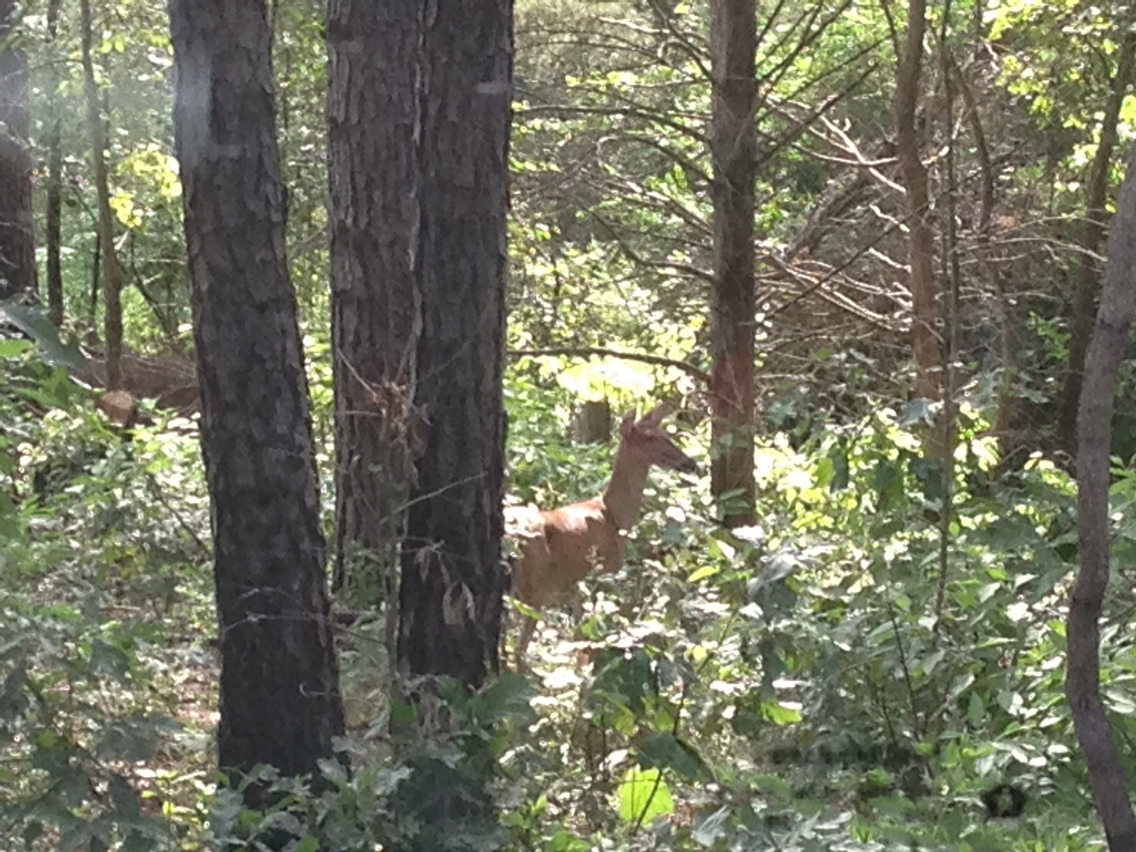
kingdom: Animalia
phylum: Chordata
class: Mammalia
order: Artiodactyla
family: Cervidae
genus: Odocoileus
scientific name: Odocoileus virginianus
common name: White-tailed deer
